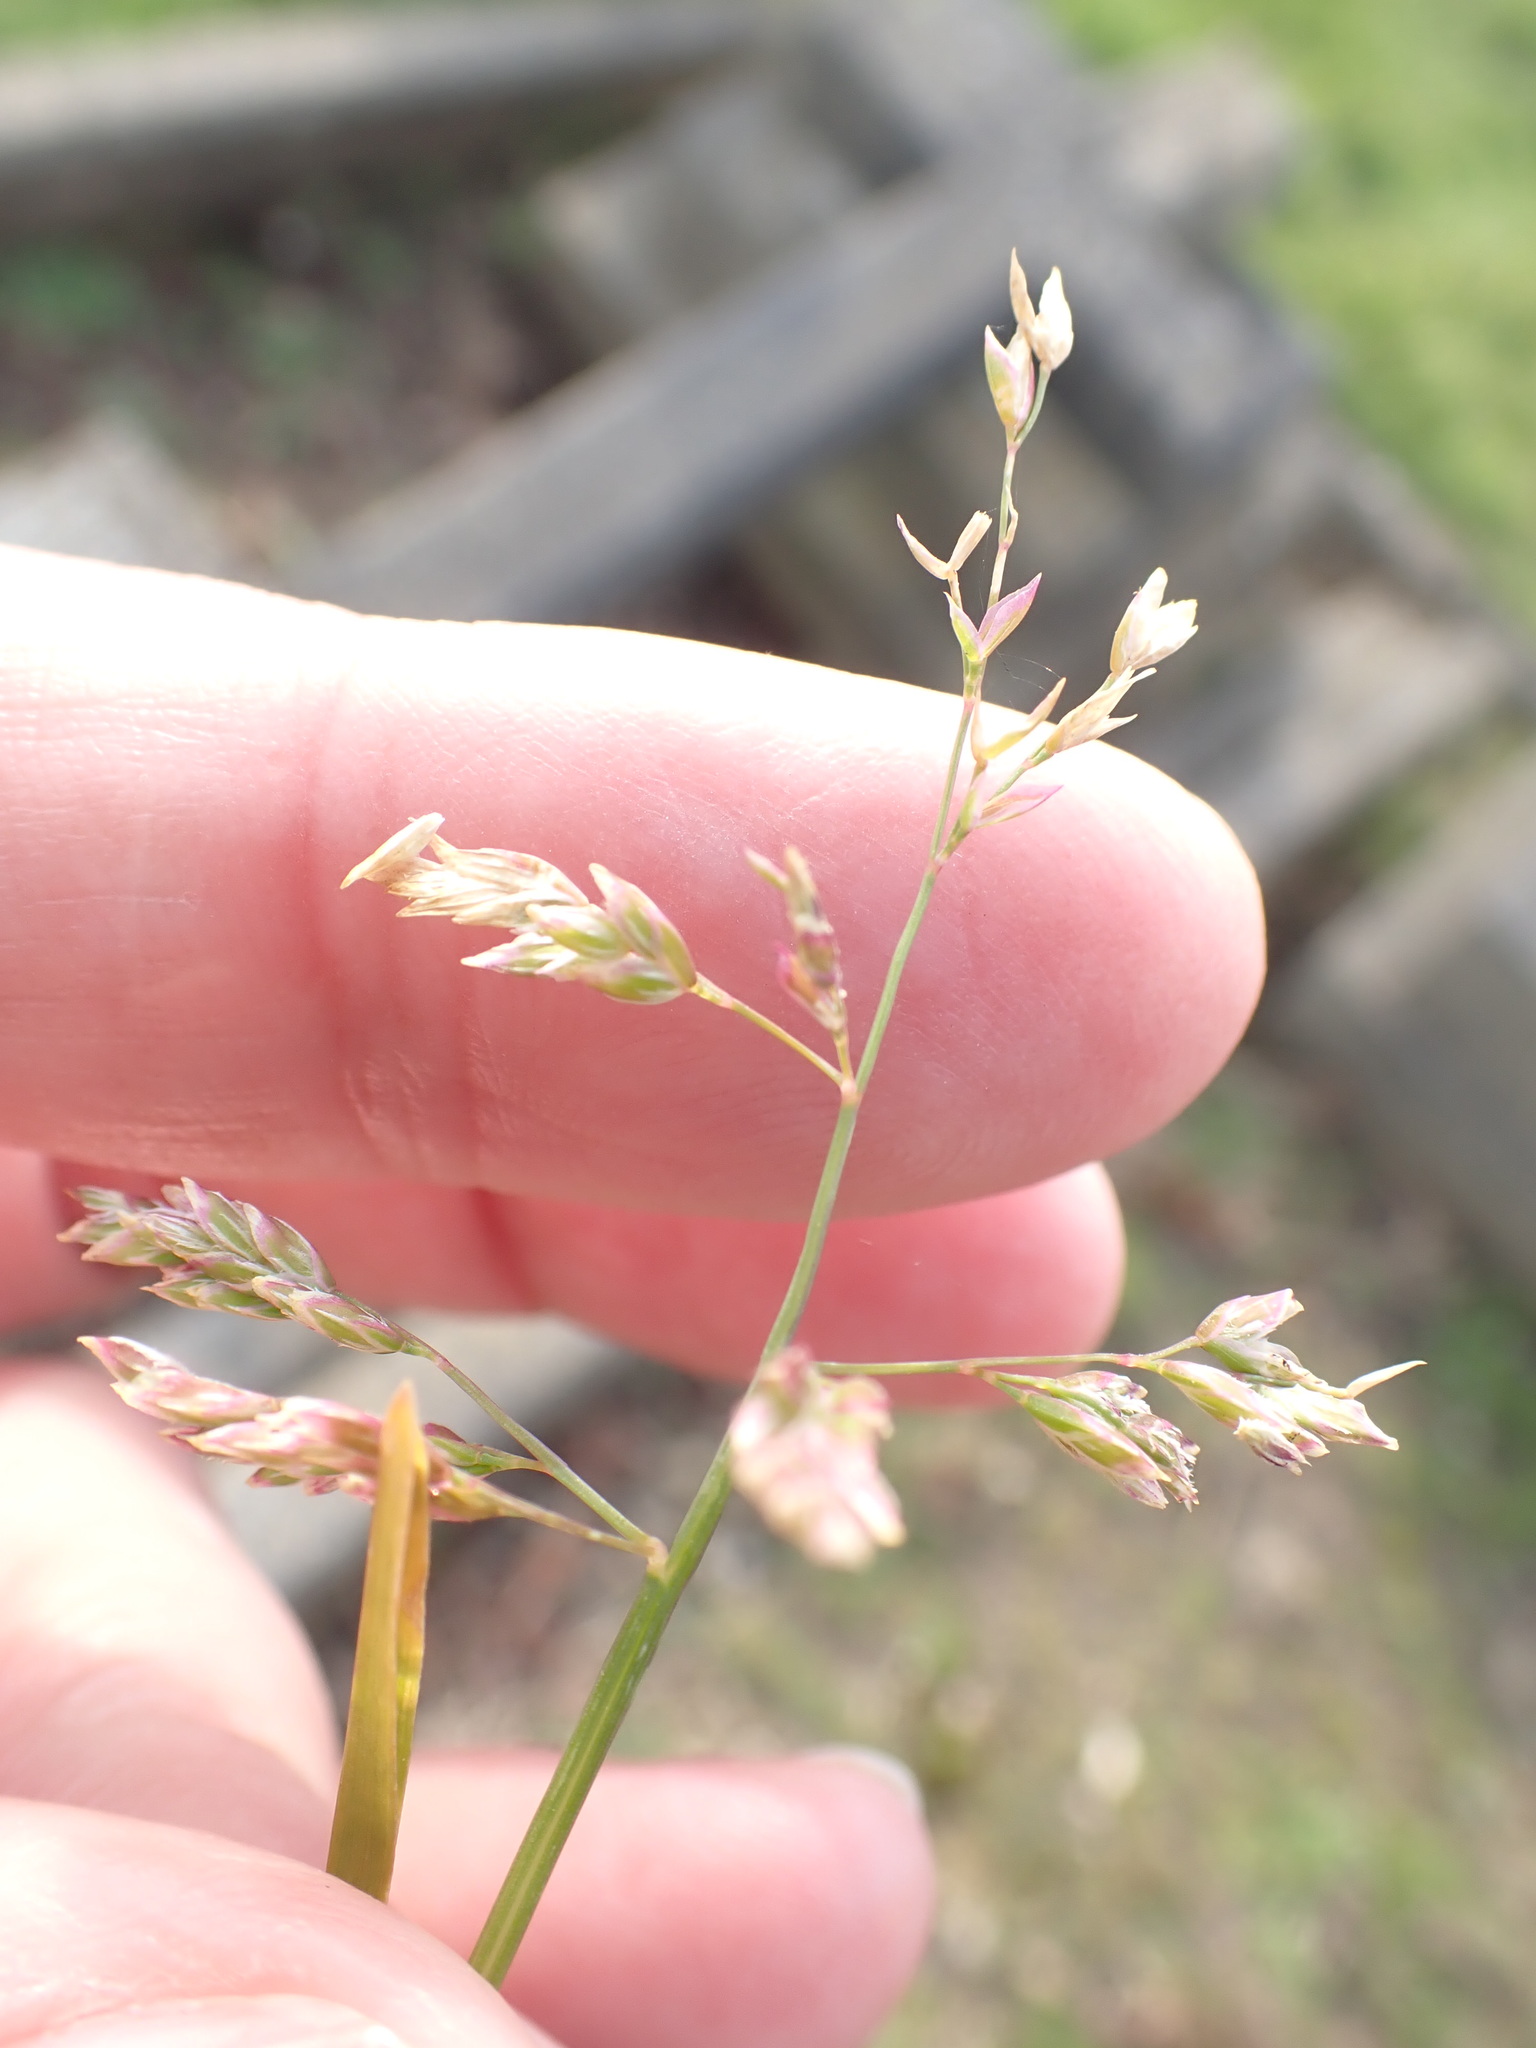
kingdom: Plantae
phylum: Tracheophyta
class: Liliopsida
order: Poales
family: Poaceae
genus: Poa
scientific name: Poa annua
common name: Annual bluegrass
